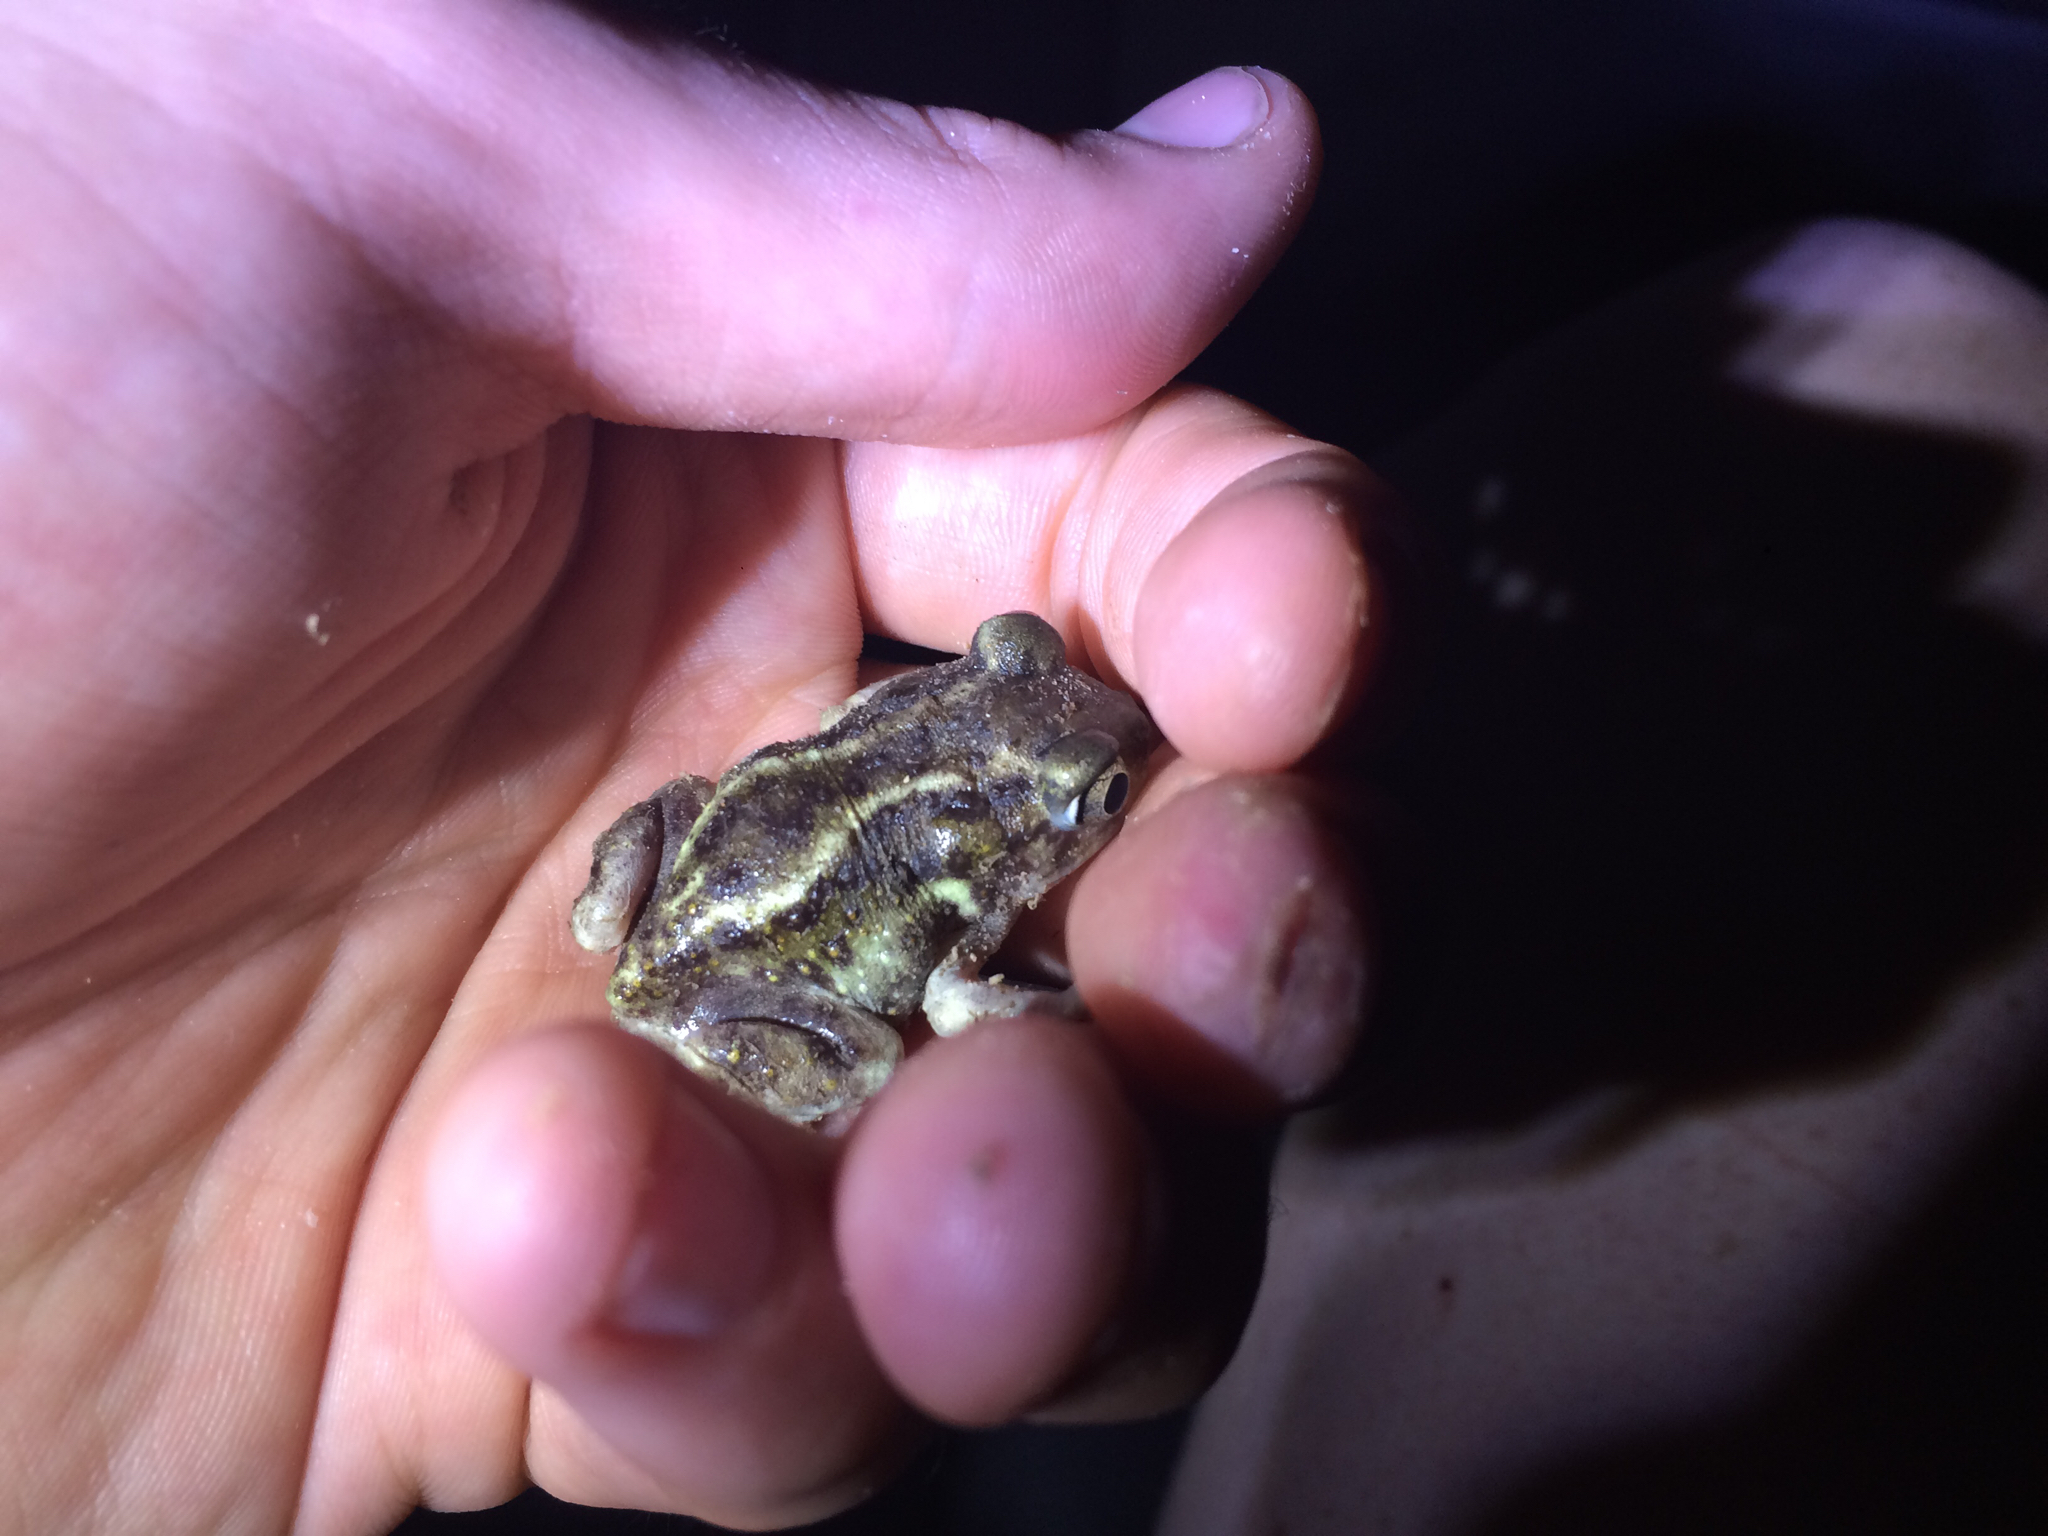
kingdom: Animalia
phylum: Chordata
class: Amphibia
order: Anura
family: Scaphiopodidae
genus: Scaphiopus
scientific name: Scaphiopus hurterii
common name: Hurter's spadefoot toad
